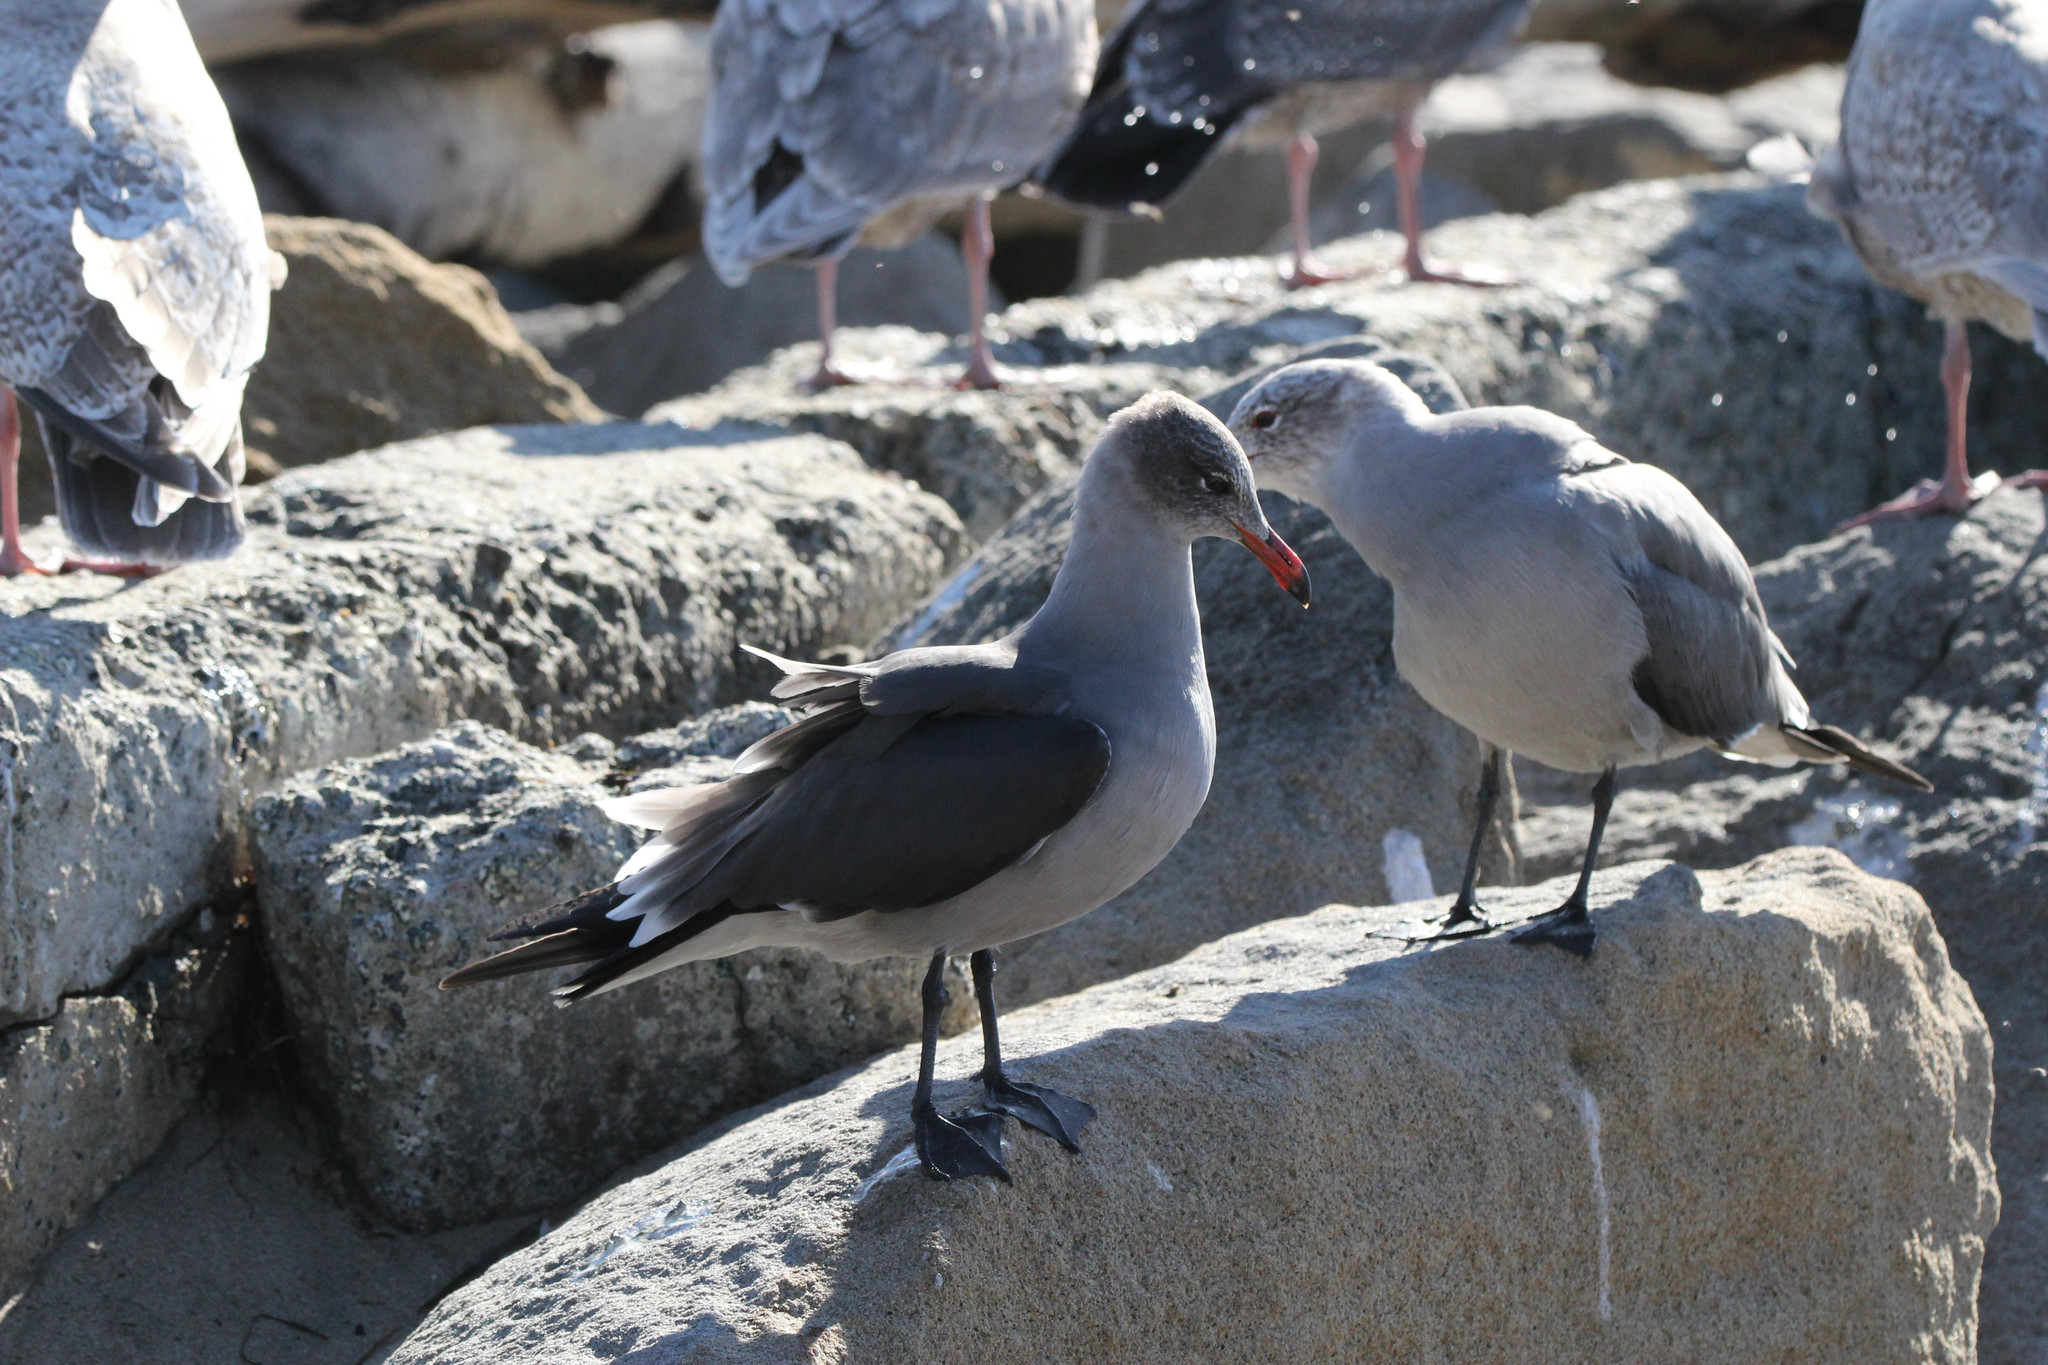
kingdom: Animalia
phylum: Chordata
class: Aves
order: Charadriiformes
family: Laridae
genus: Larus
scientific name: Larus heermanni
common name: Heermann's gull
